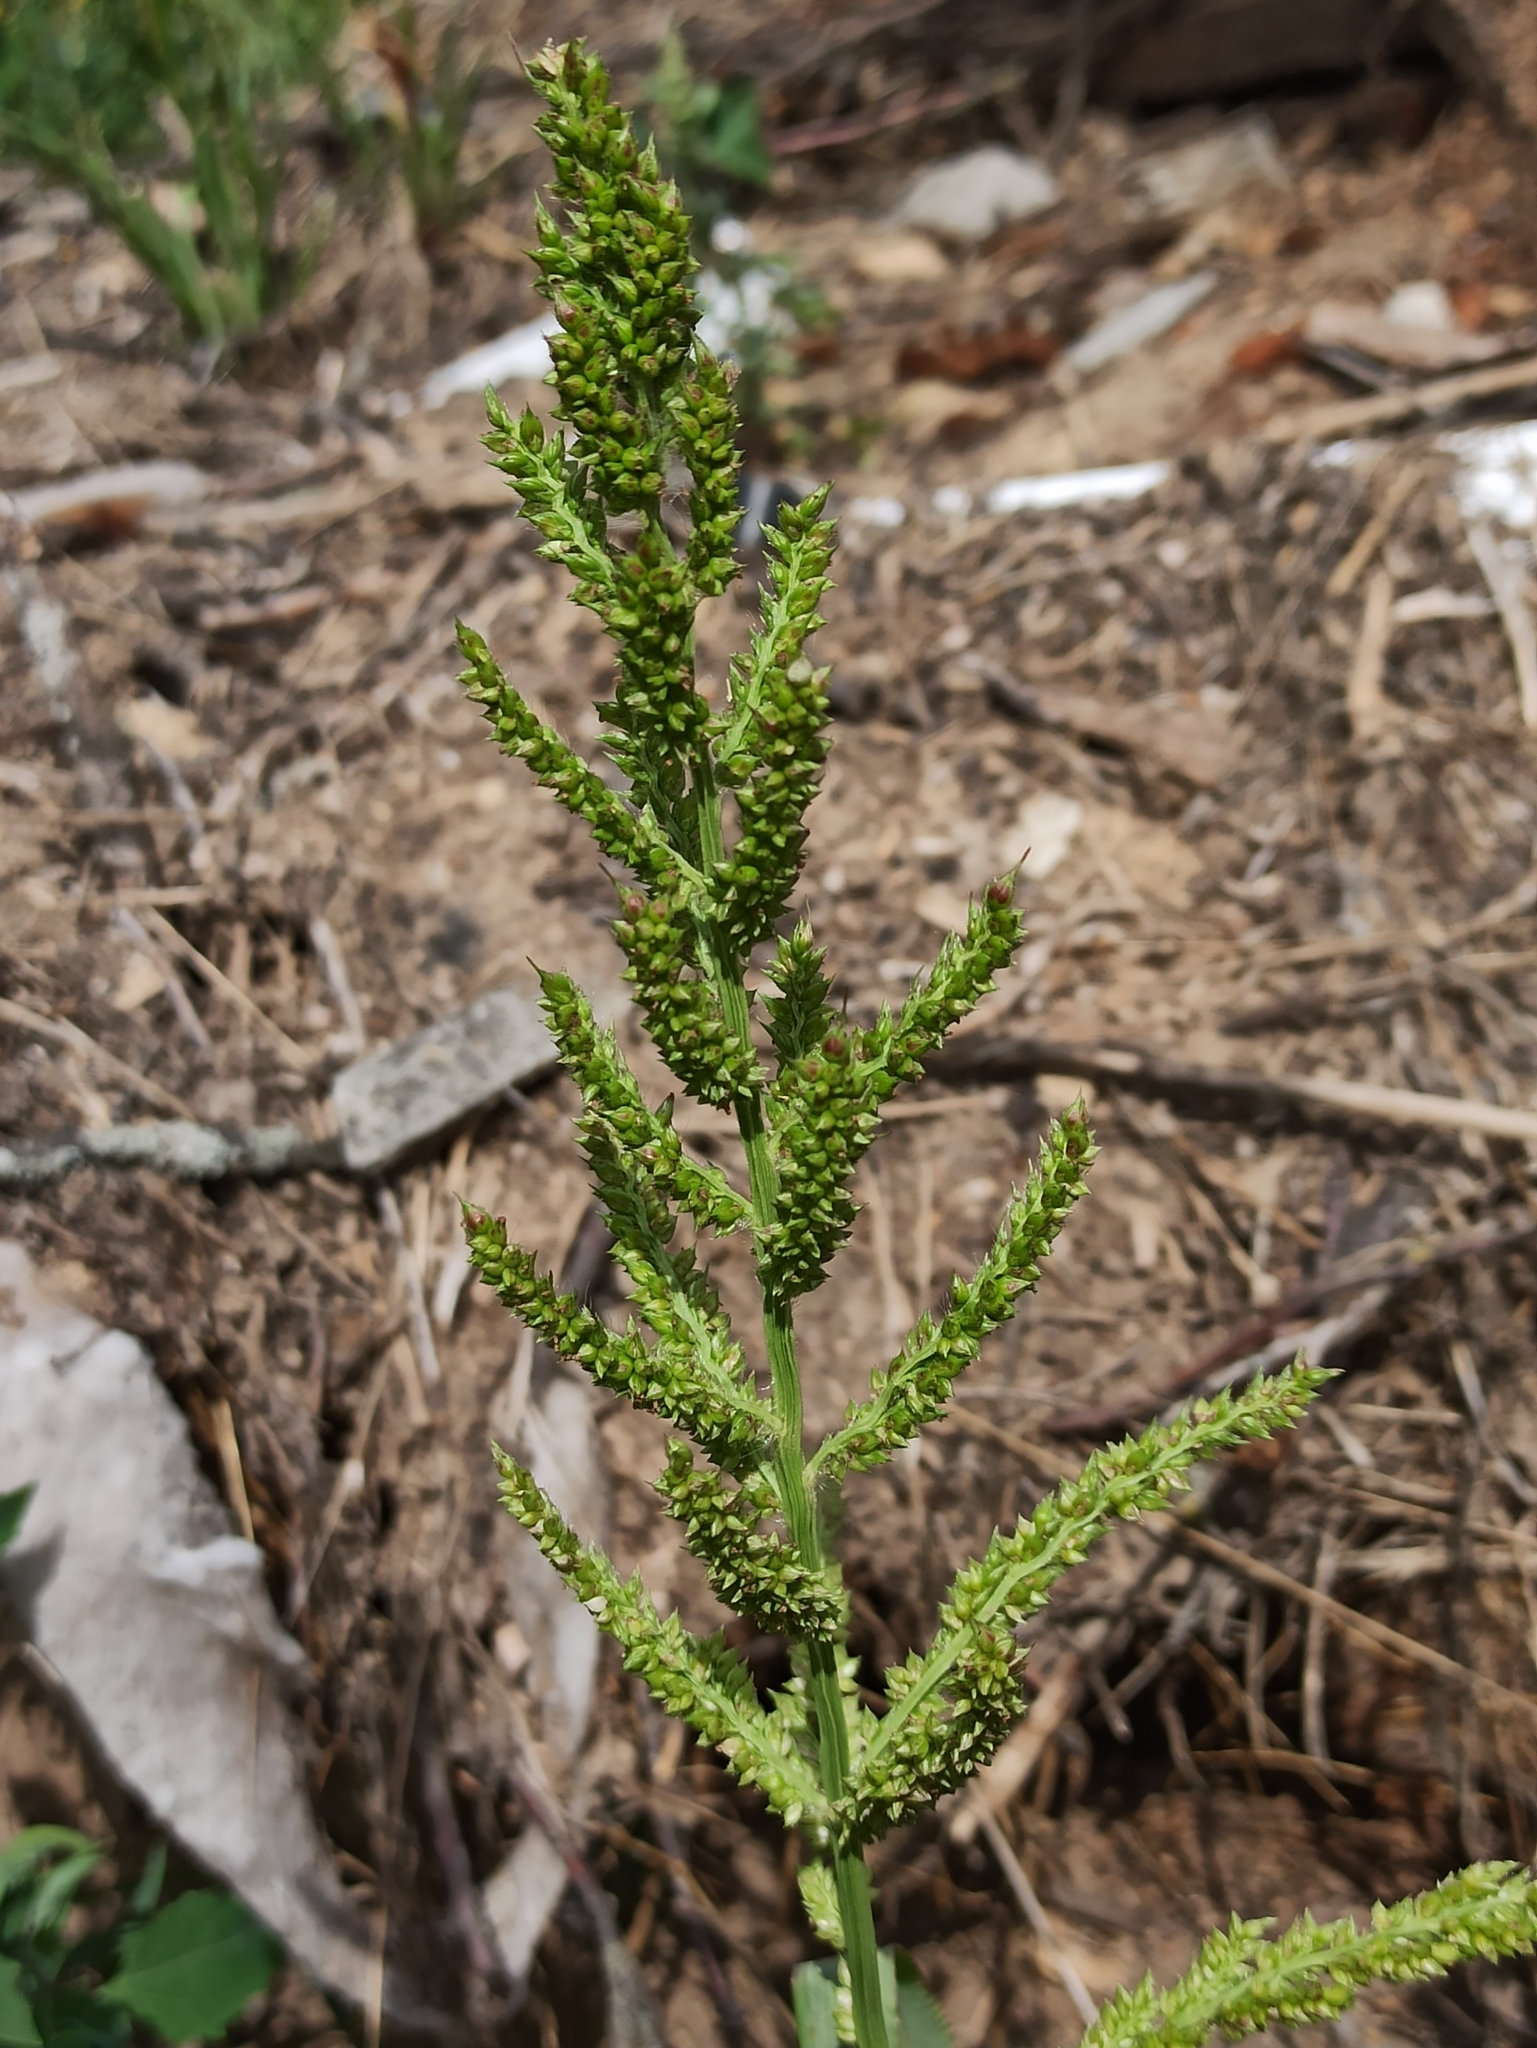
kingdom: Plantae
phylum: Tracheophyta
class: Liliopsida
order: Poales
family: Poaceae
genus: Echinochloa
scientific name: Echinochloa crus-galli
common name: Cockspur
